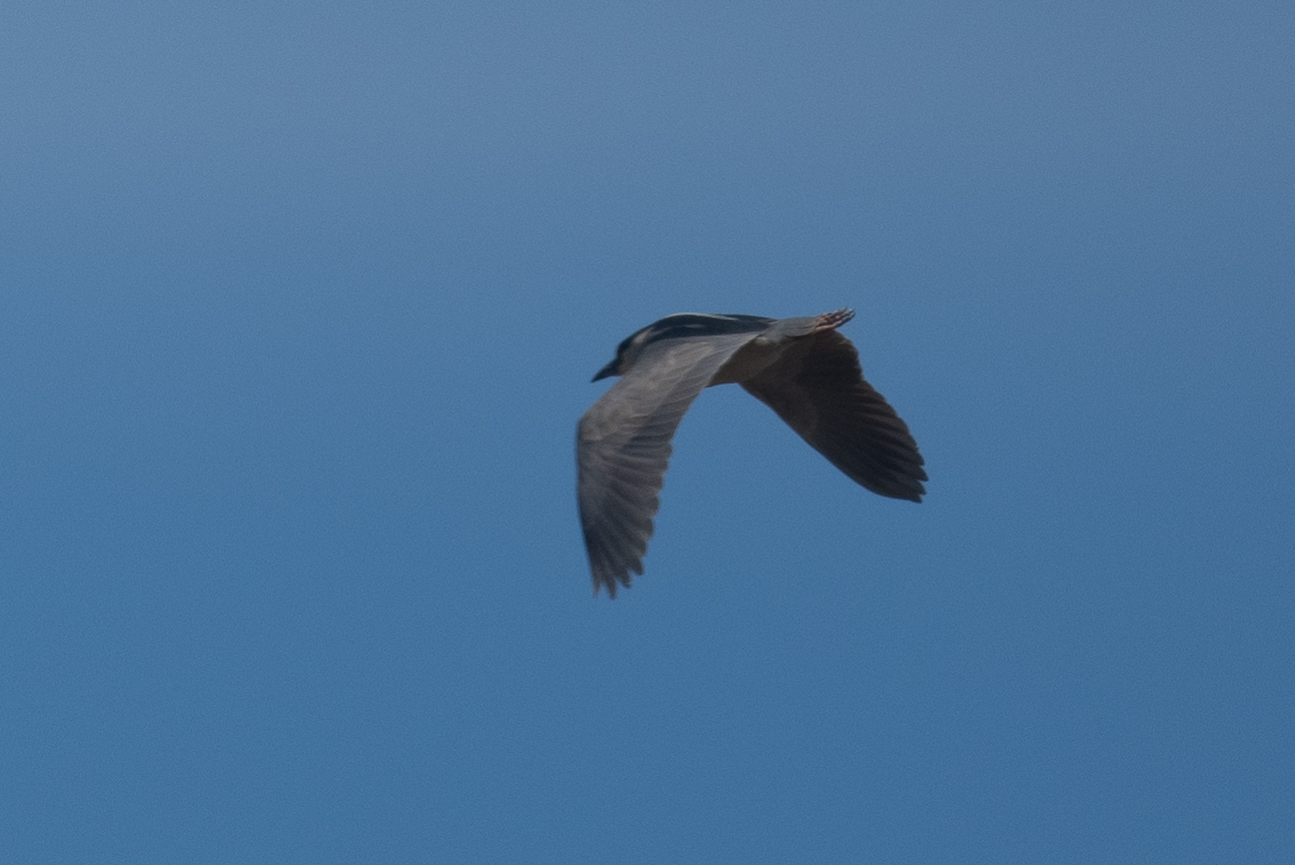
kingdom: Animalia
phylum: Chordata
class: Aves
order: Pelecaniformes
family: Ardeidae
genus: Nycticorax
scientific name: Nycticorax nycticorax
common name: Black-crowned night heron
